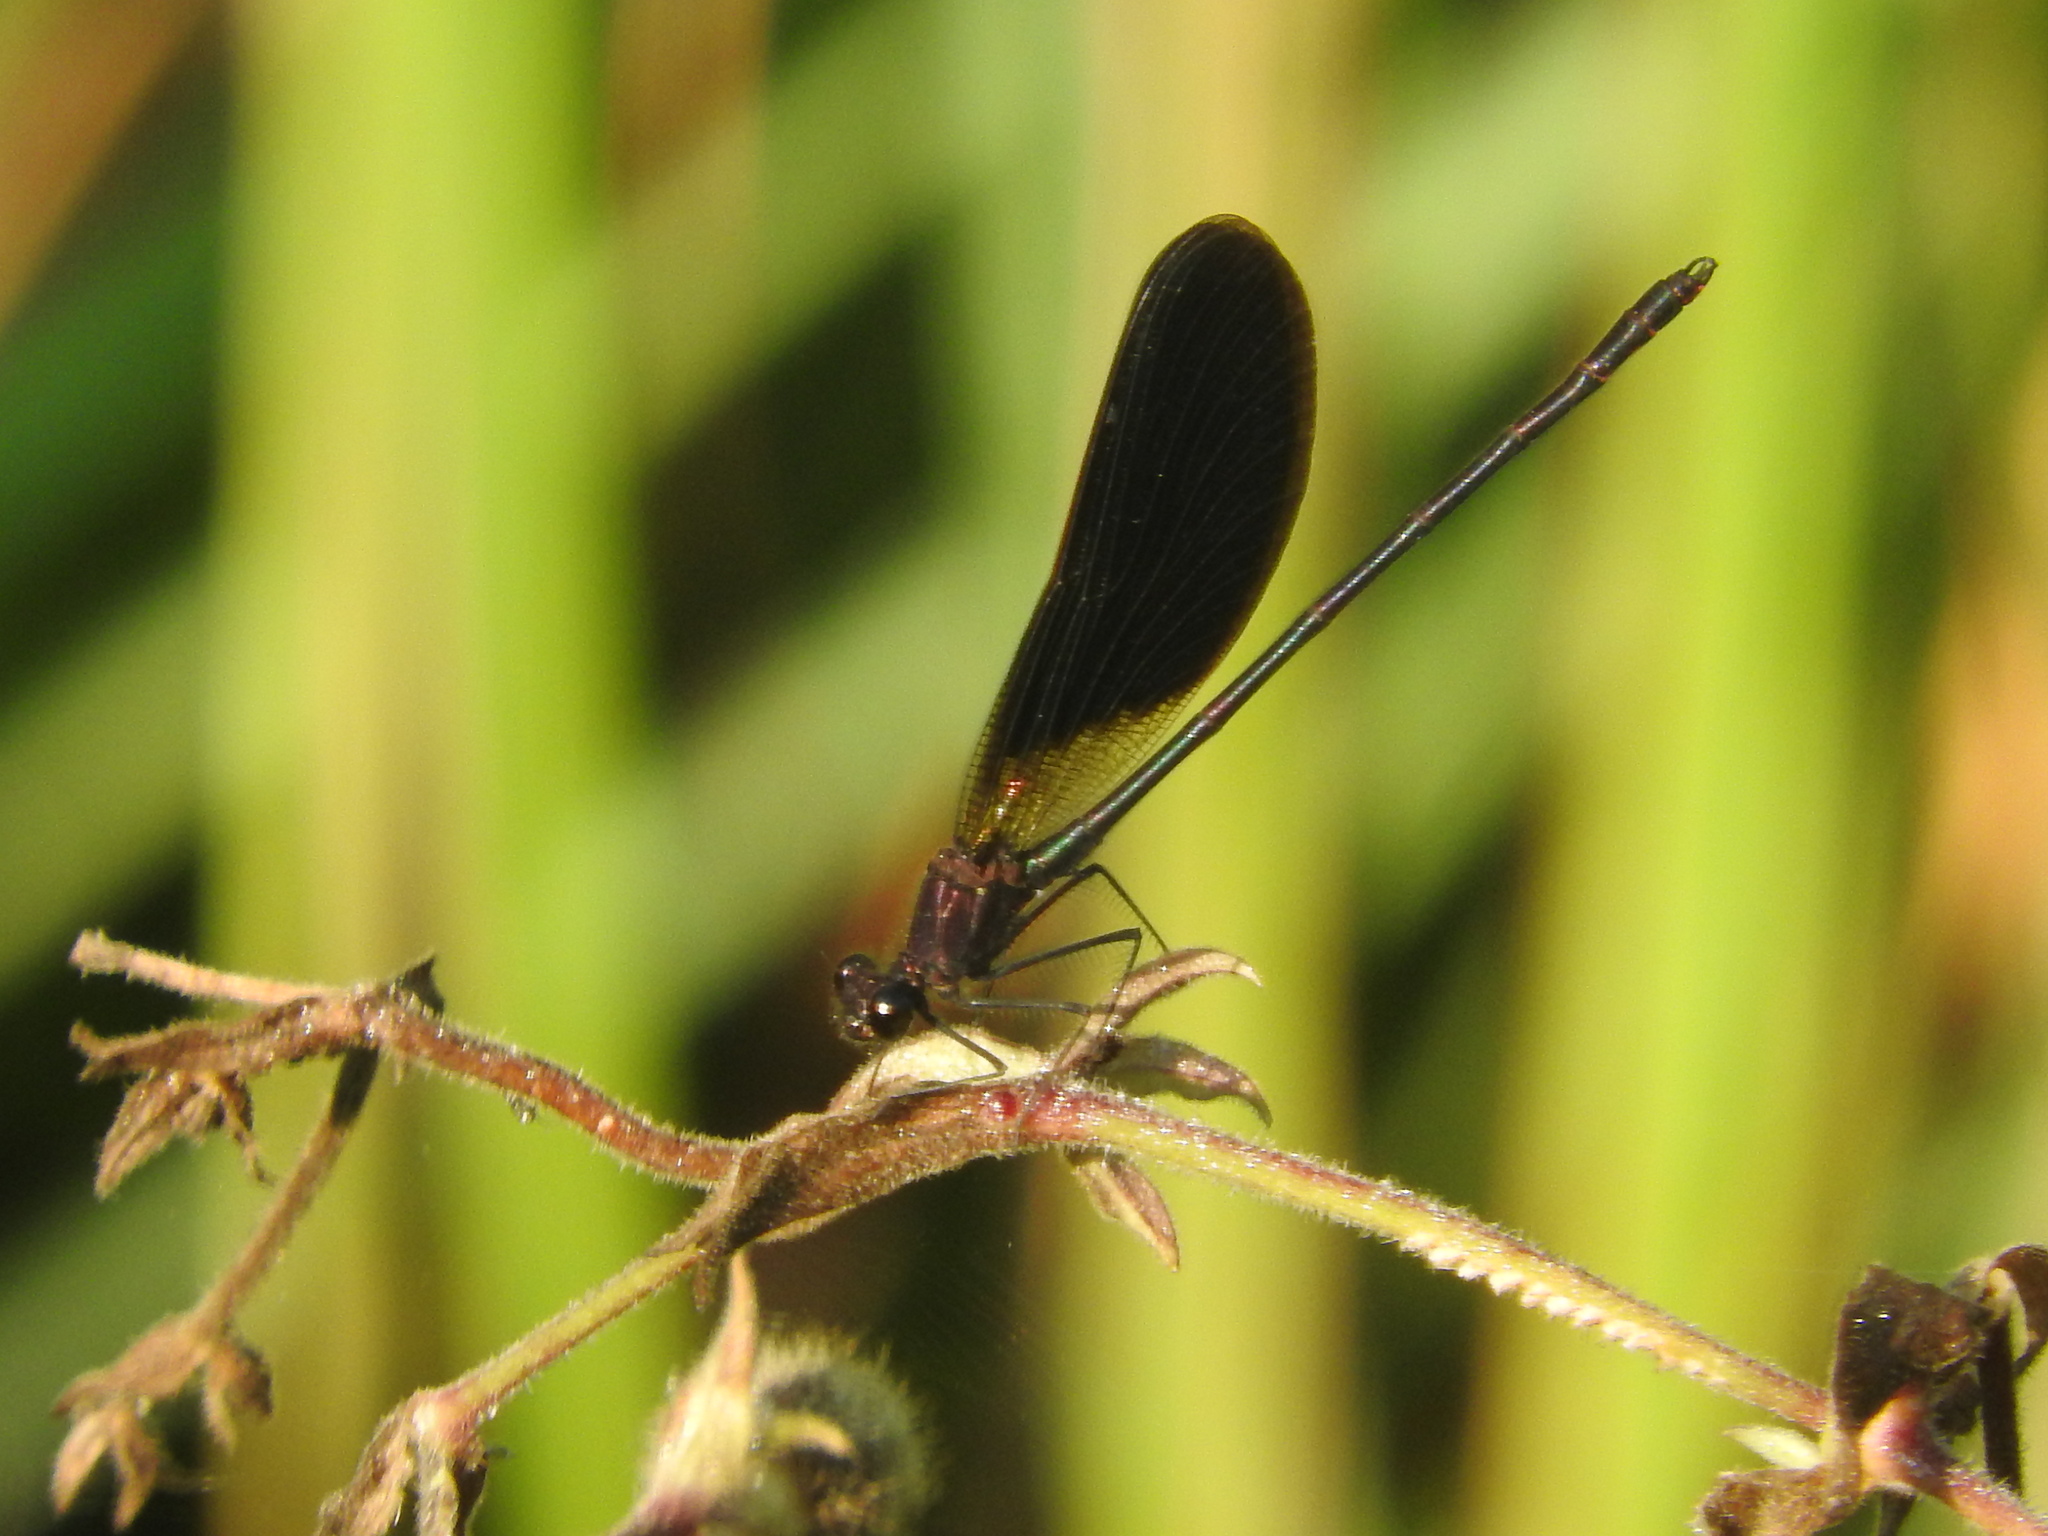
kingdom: Animalia
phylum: Arthropoda
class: Insecta
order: Odonata
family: Calopterygidae
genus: Calopteryx
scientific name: Calopteryx haemorrhoidalis
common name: Copper demoiselle
